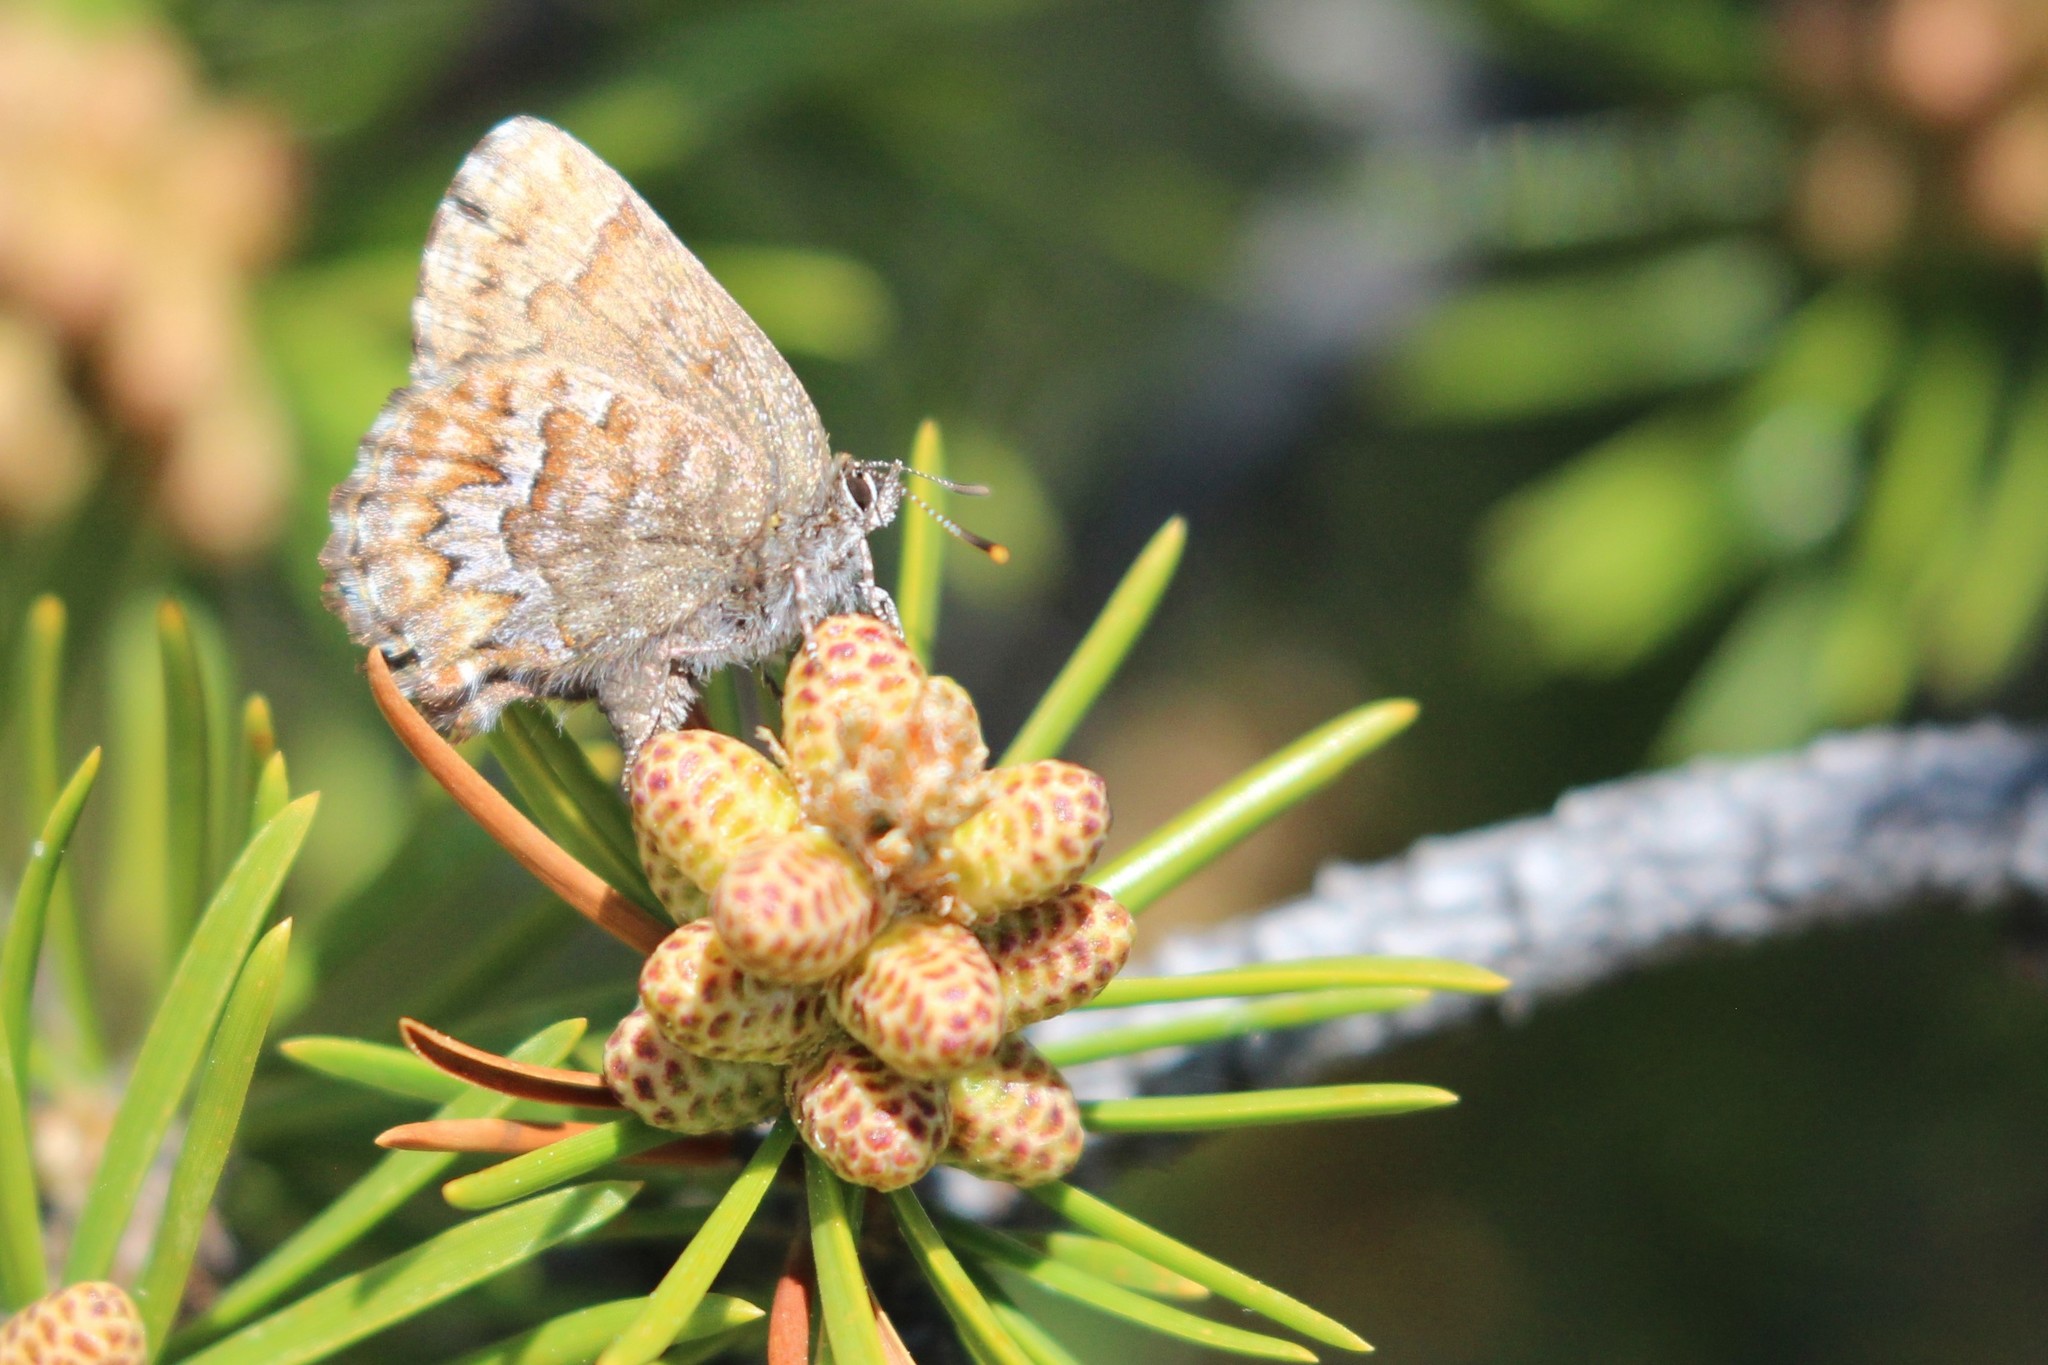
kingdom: Animalia
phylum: Arthropoda
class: Insecta
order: Lepidoptera
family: Lycaenidae
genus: Incisalia
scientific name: Incisalia niphon
